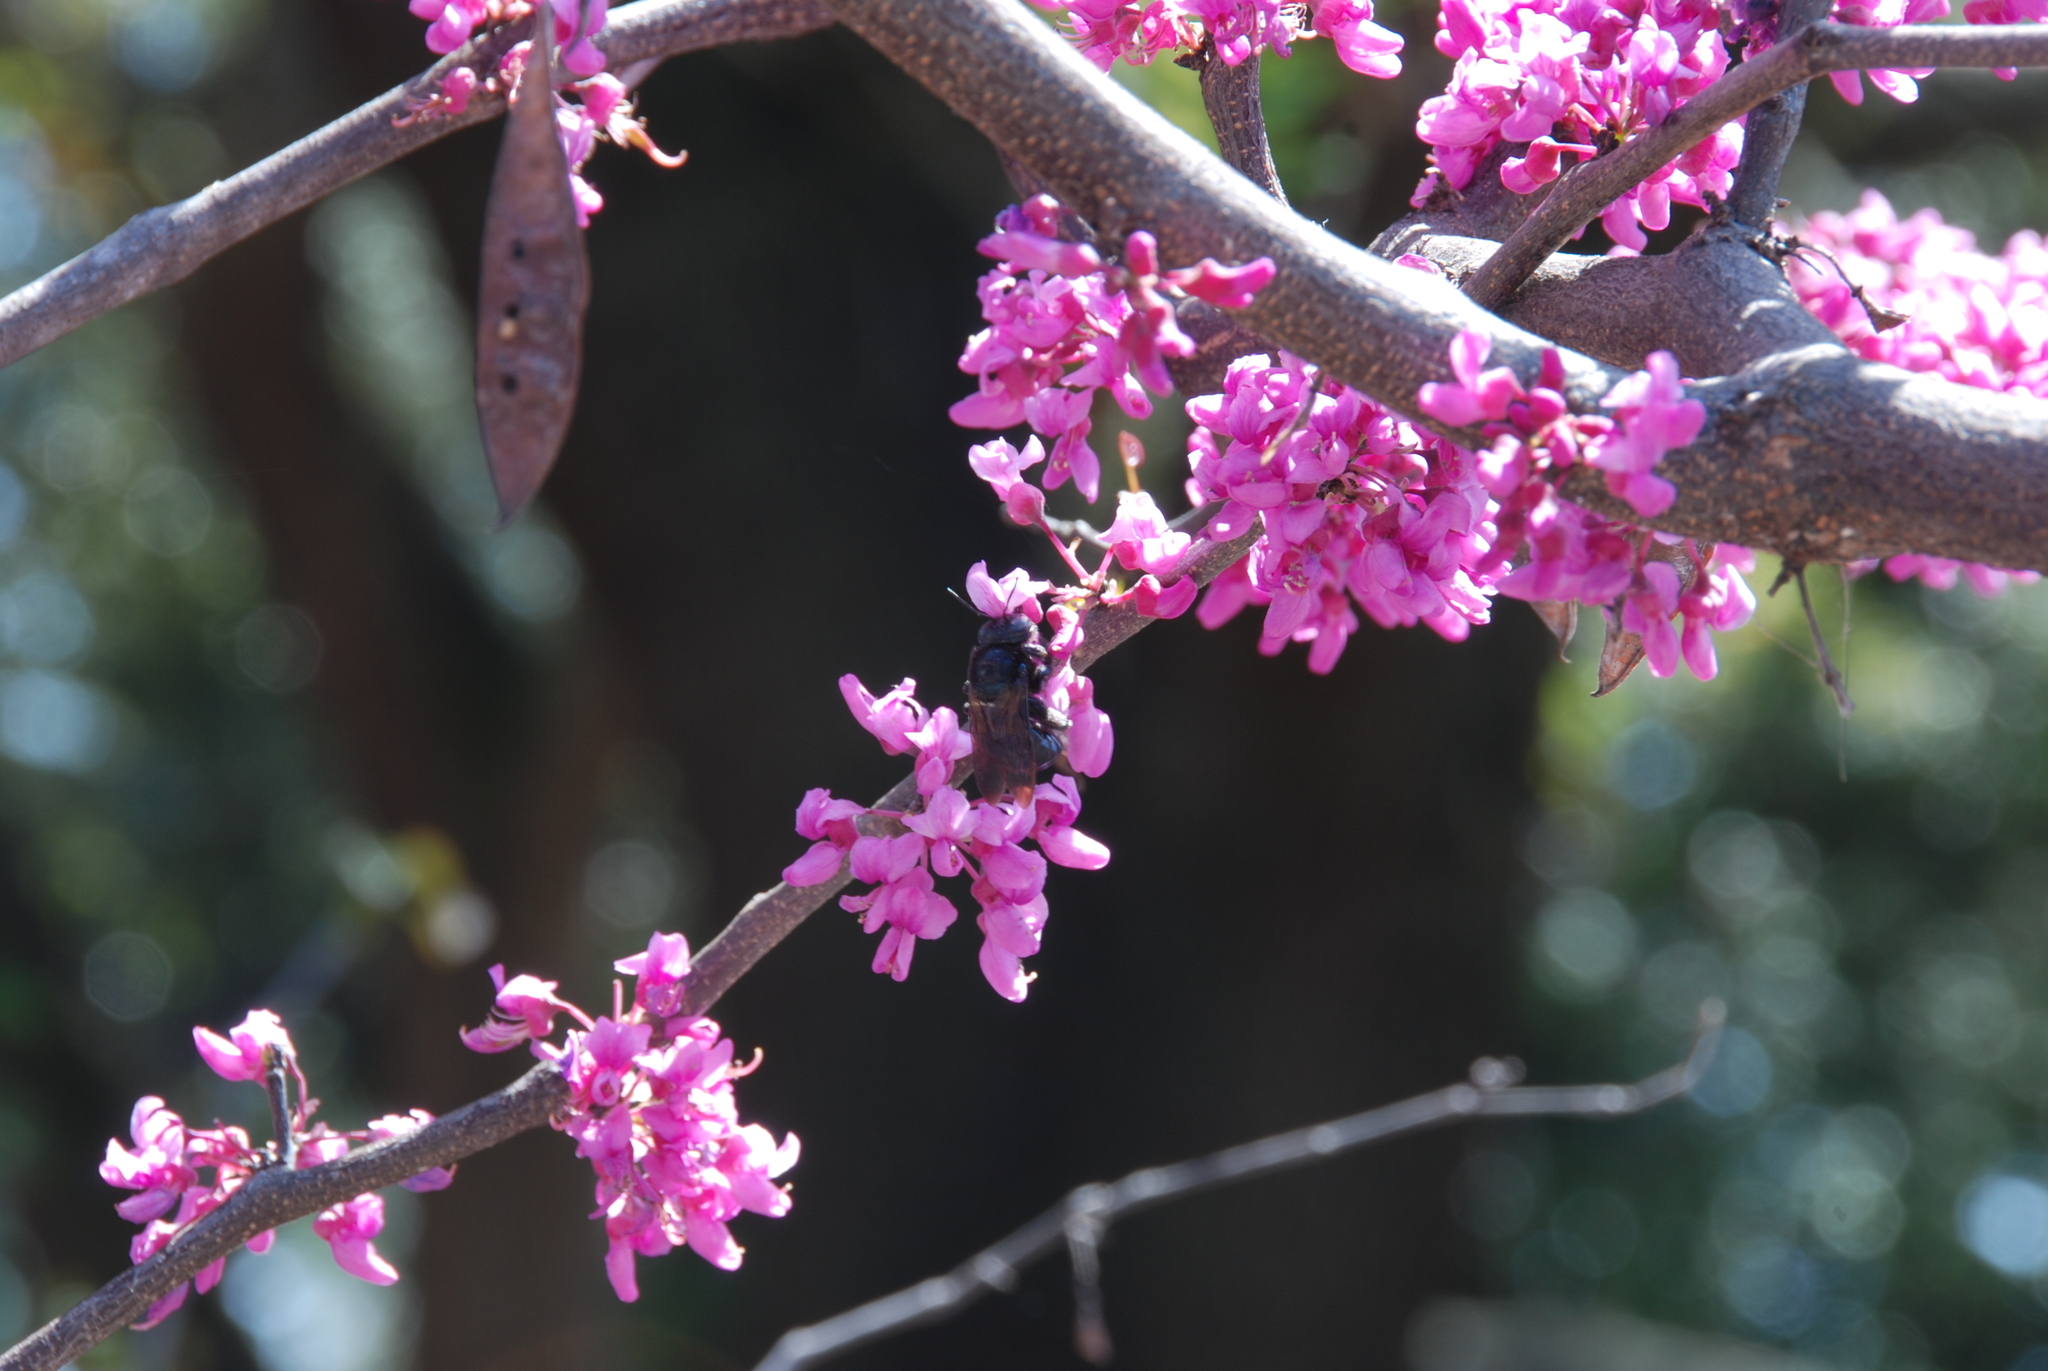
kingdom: Animalia
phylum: Arthropoda
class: Insecta
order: Hymenoptera
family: Apidae
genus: Xylocopa
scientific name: Xylocopa micans
